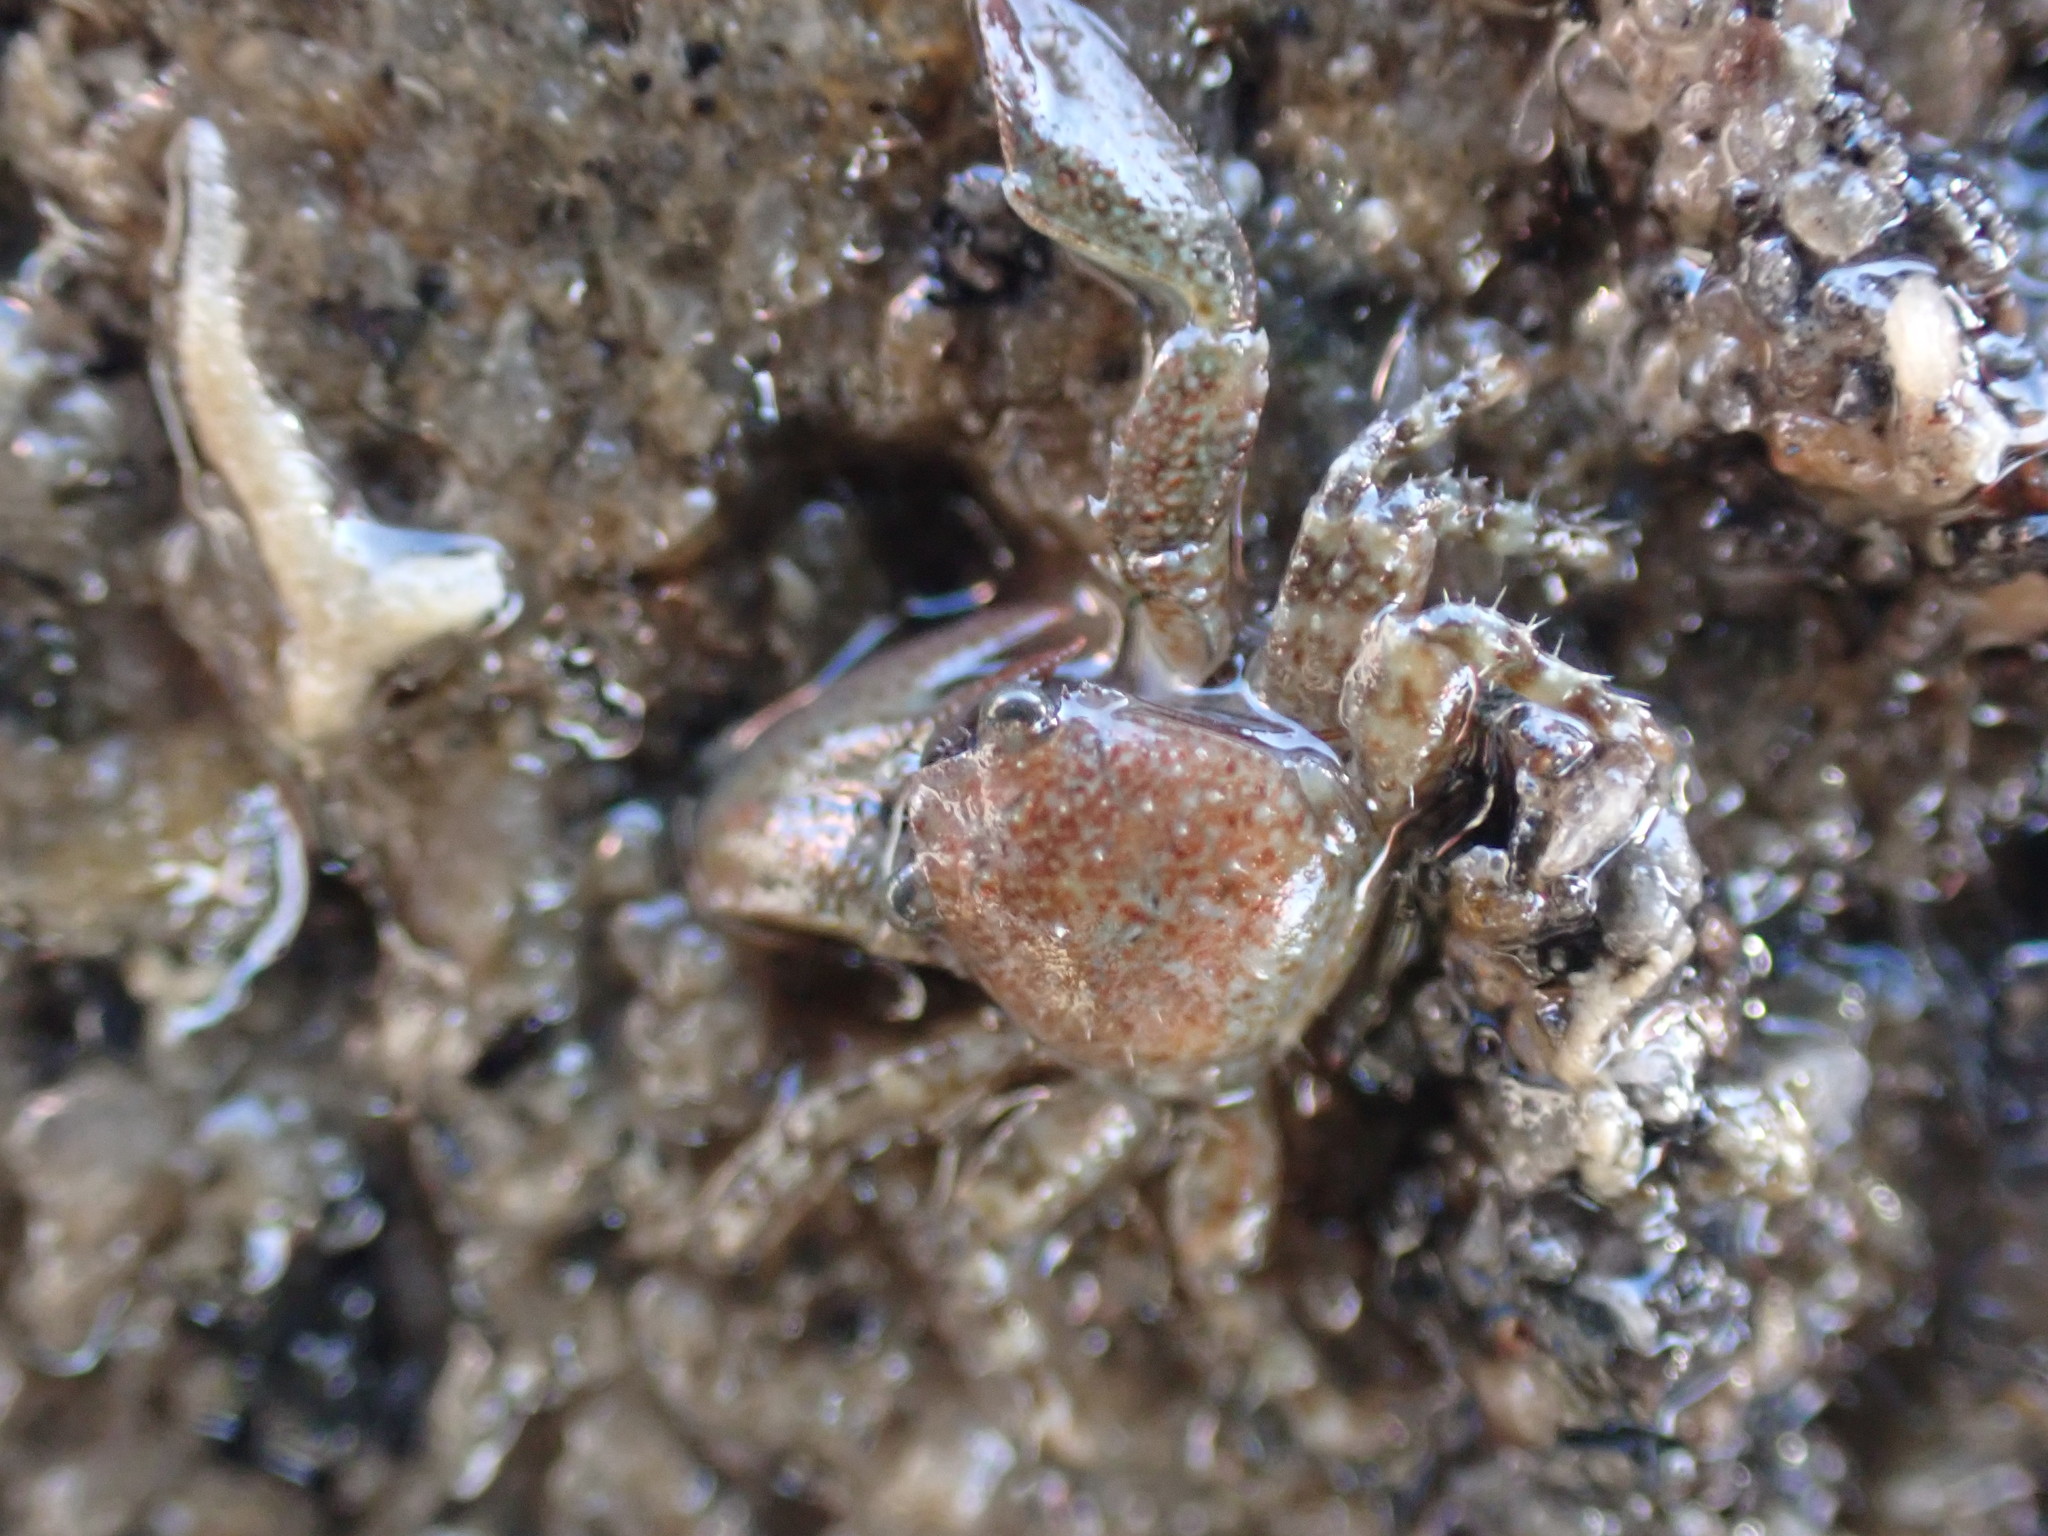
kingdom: Animalia
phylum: Arthropoda
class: Malacostraca
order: Decapoda
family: Porcellanidae
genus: Petrolisthes
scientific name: Petrolisthes elongatus
